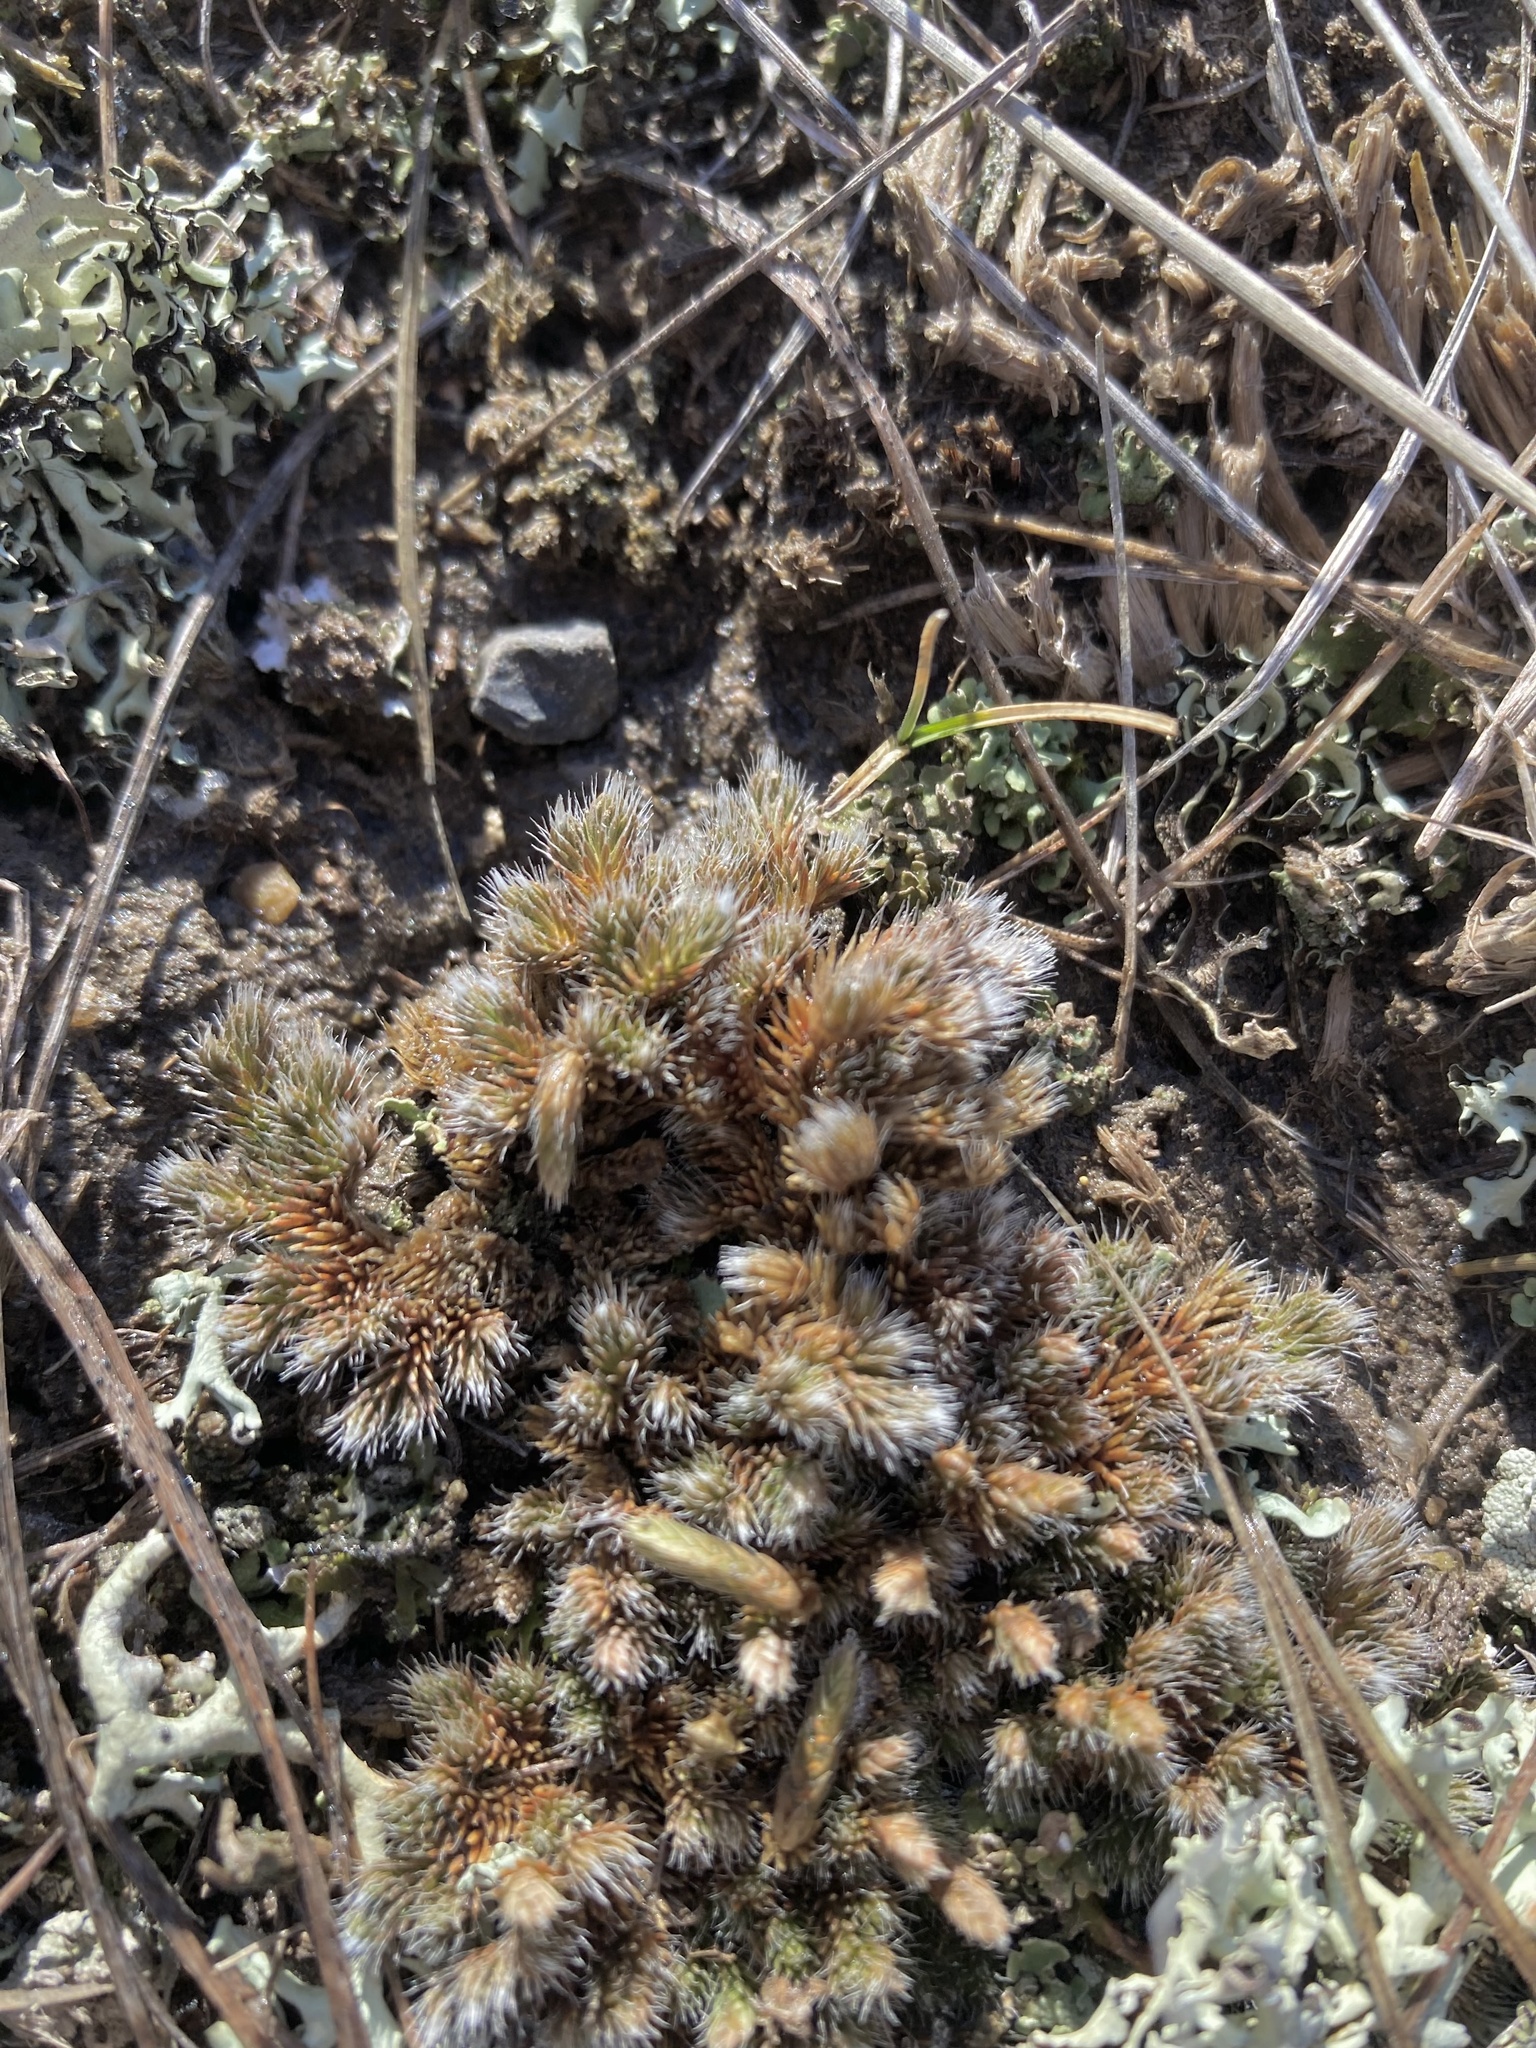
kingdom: Plantae
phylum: Tracheophyta
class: Lycopodiopsida
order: Selaginellales
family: Selaginellaceae
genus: Selaginella
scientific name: Selaginella densa
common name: Mountain spike-moss
